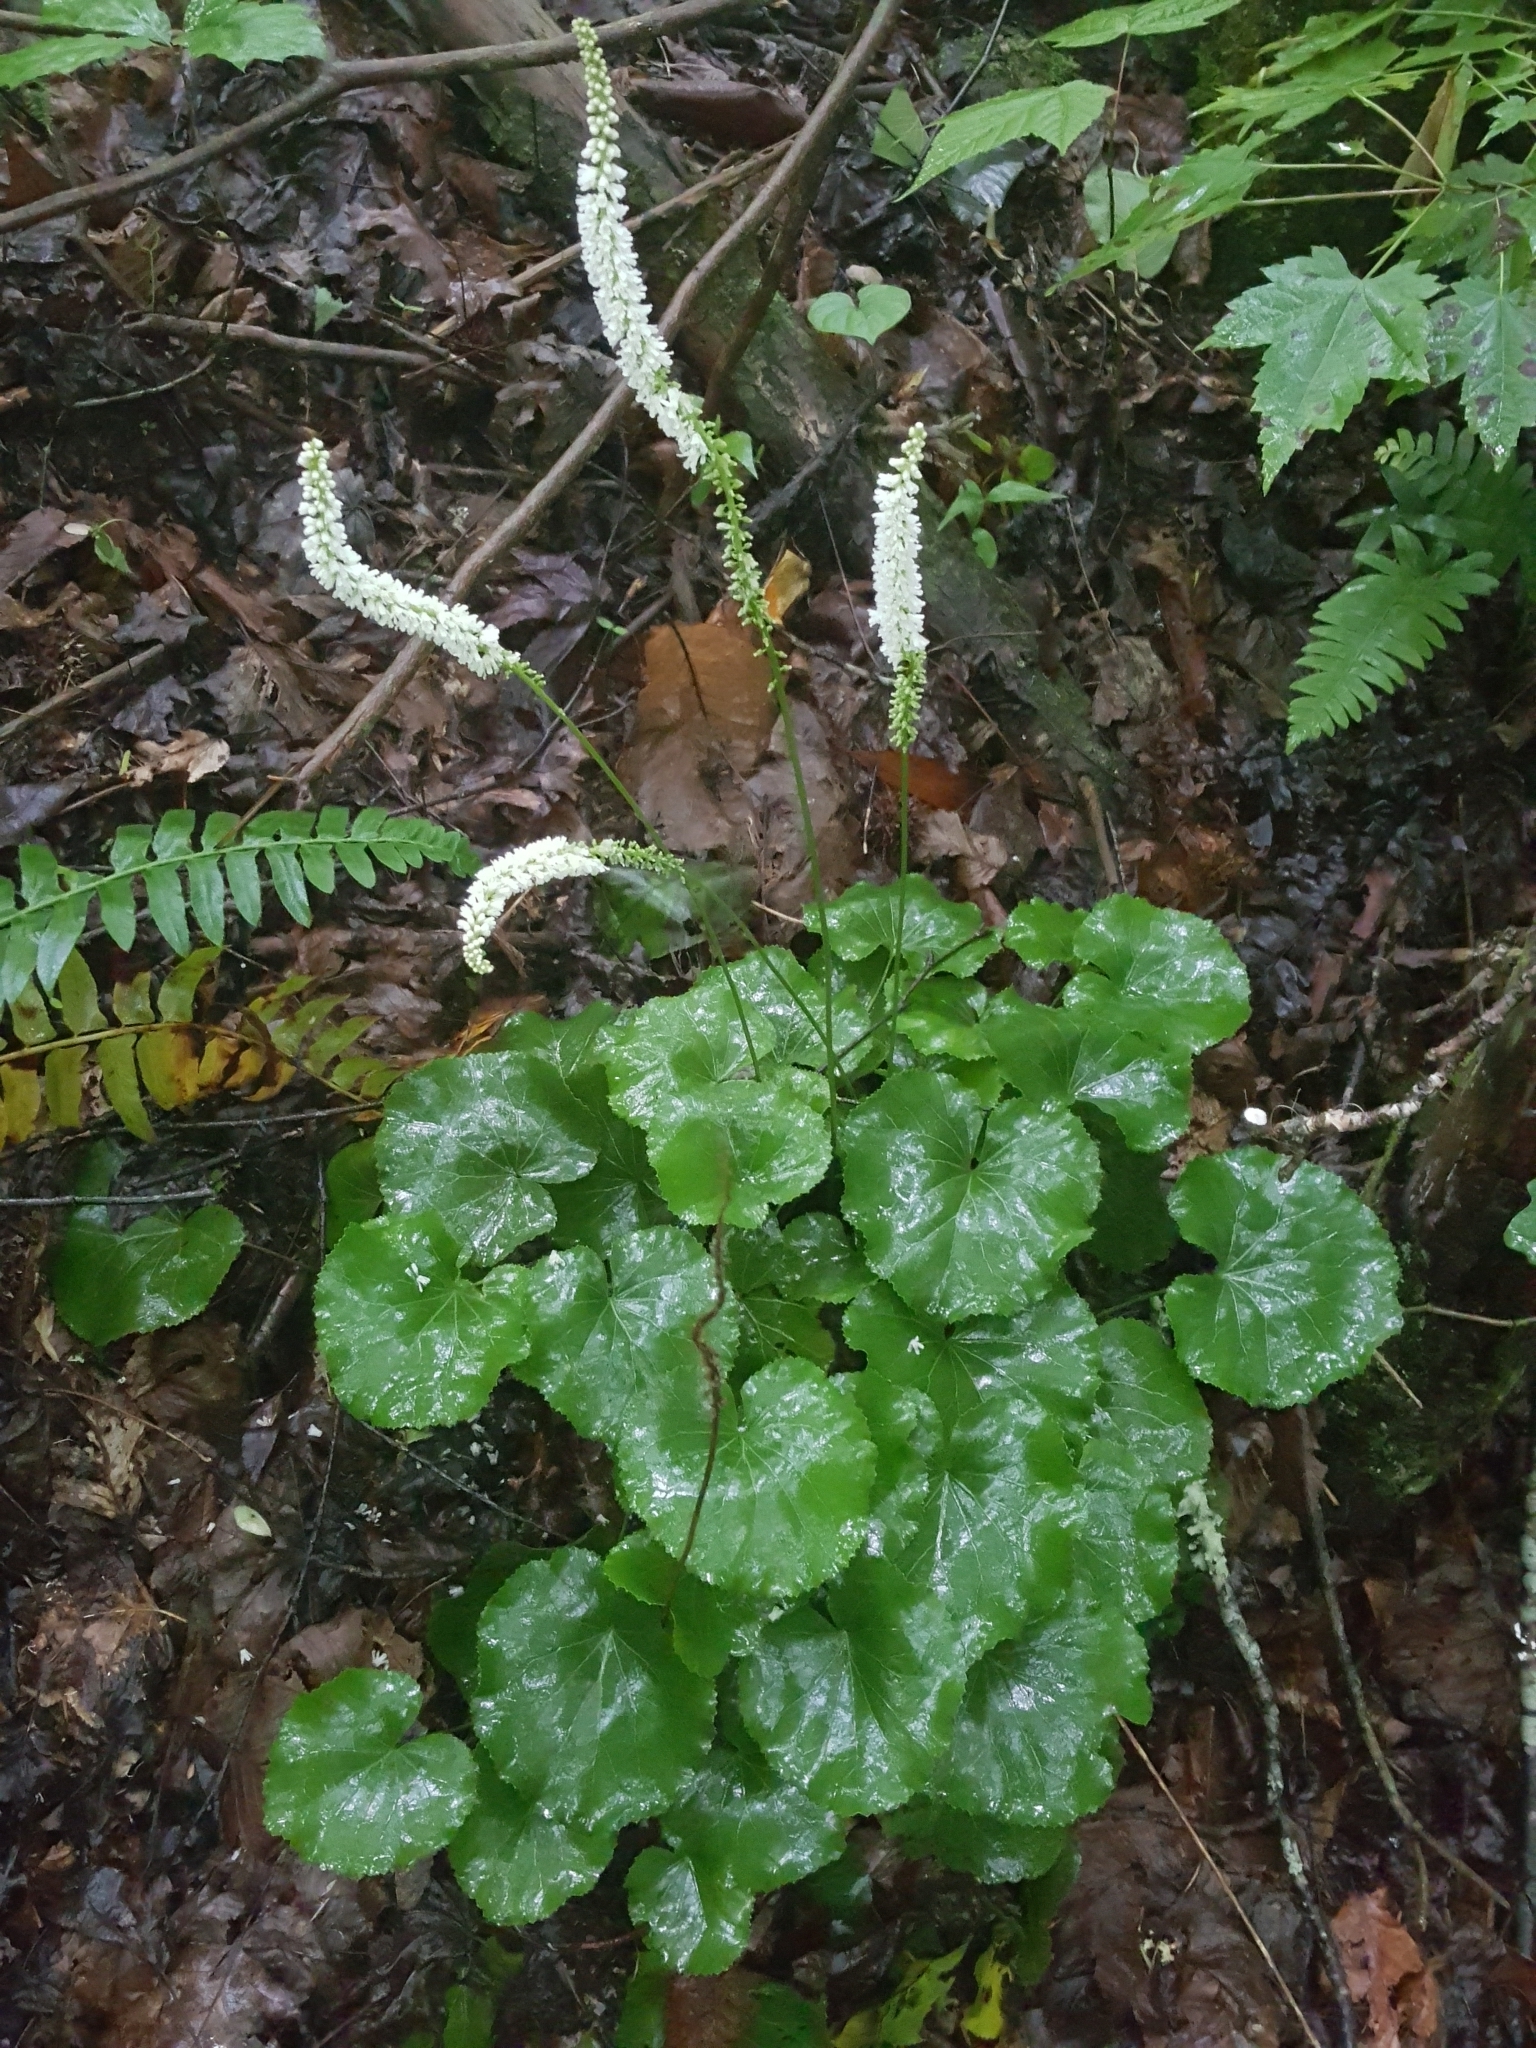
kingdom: Plantae
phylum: Tracheophyta
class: Magnoliopsida
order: Ericales
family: Diapensiaceae
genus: Galax
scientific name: Galax urceolata
